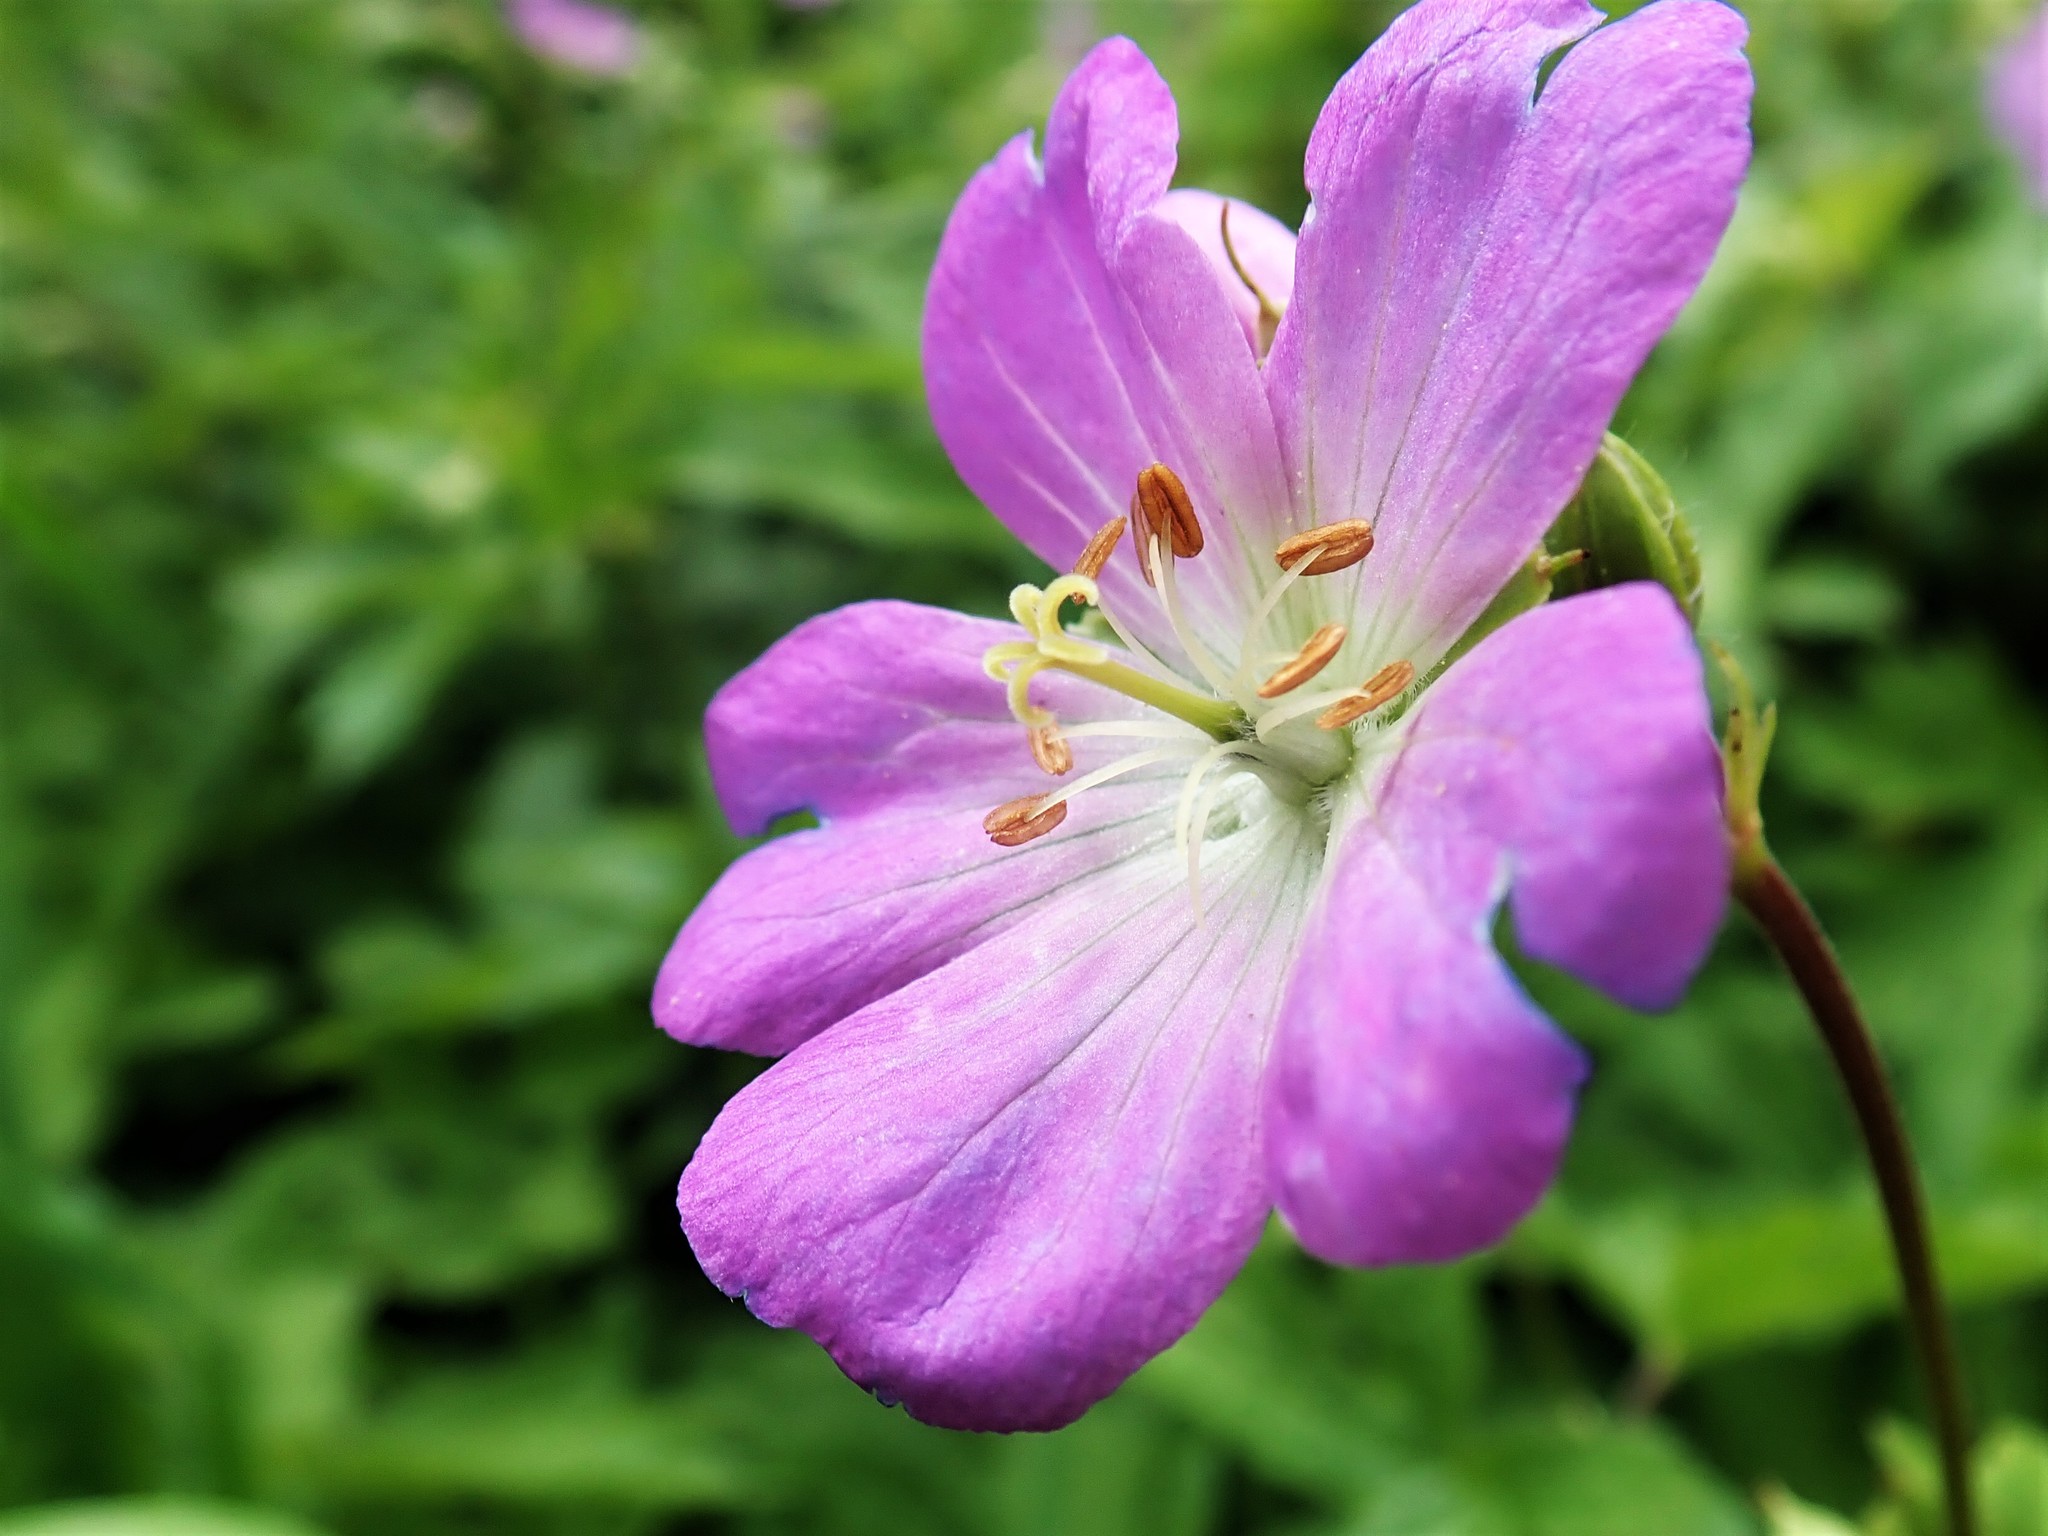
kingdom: Plantae
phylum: Tracheophyta
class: Magnoliopsida
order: Geraniales
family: Geraniaceae
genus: Geranium
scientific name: Geranium maculatum
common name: Spotted geranium
